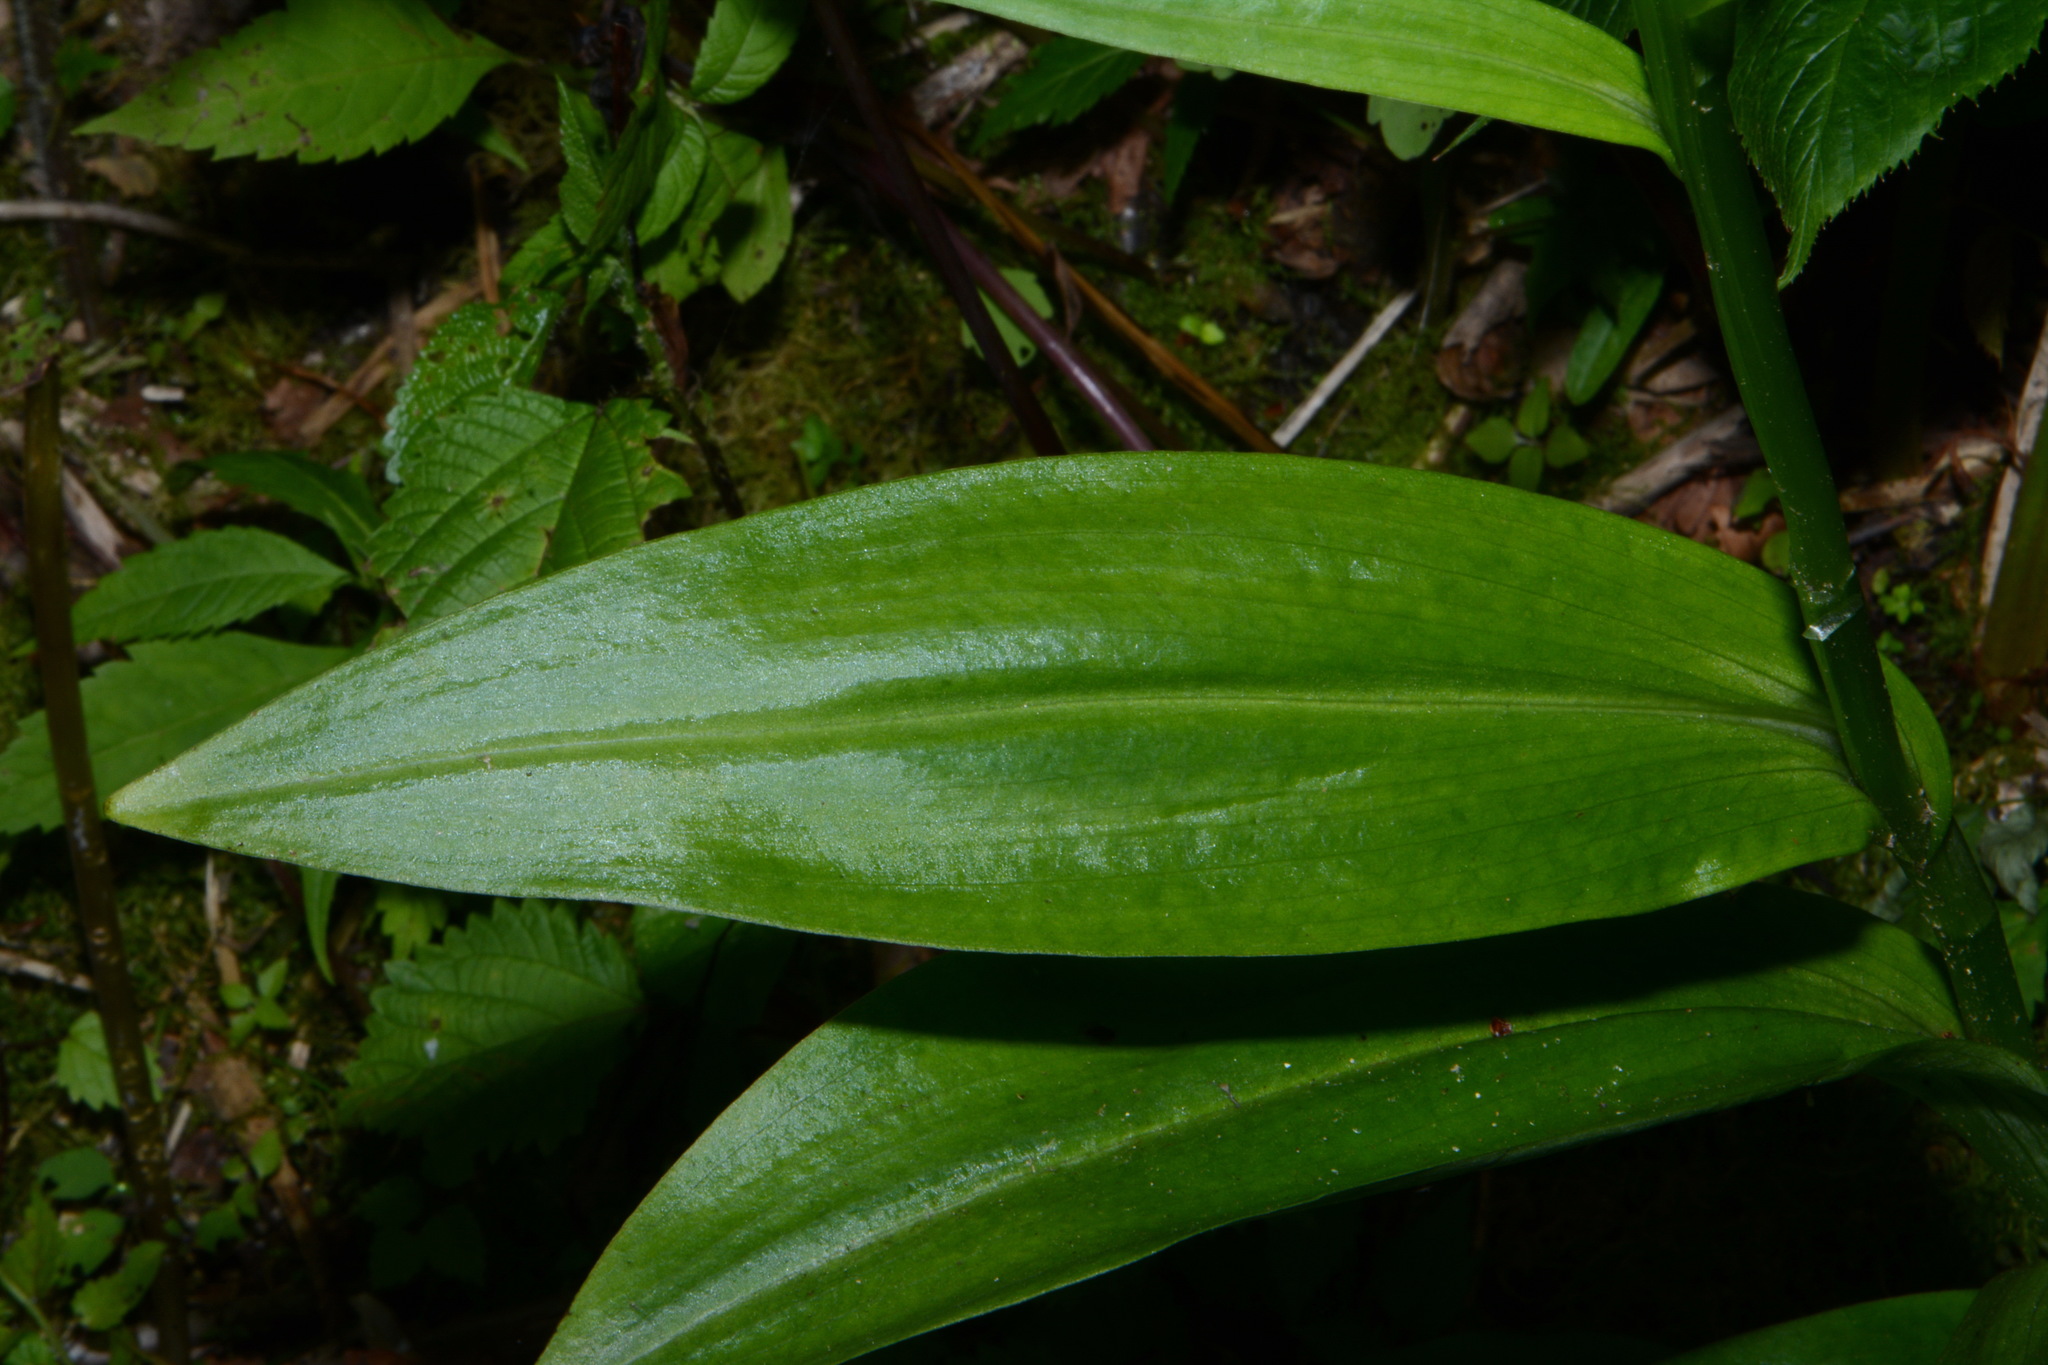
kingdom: Plantae
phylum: Tracheophyta
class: Liliopsida
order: Asparagales
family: Orchidaceae
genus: Platanthera
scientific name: Platanthera psycodes
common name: Lesser purple fringed orchid
